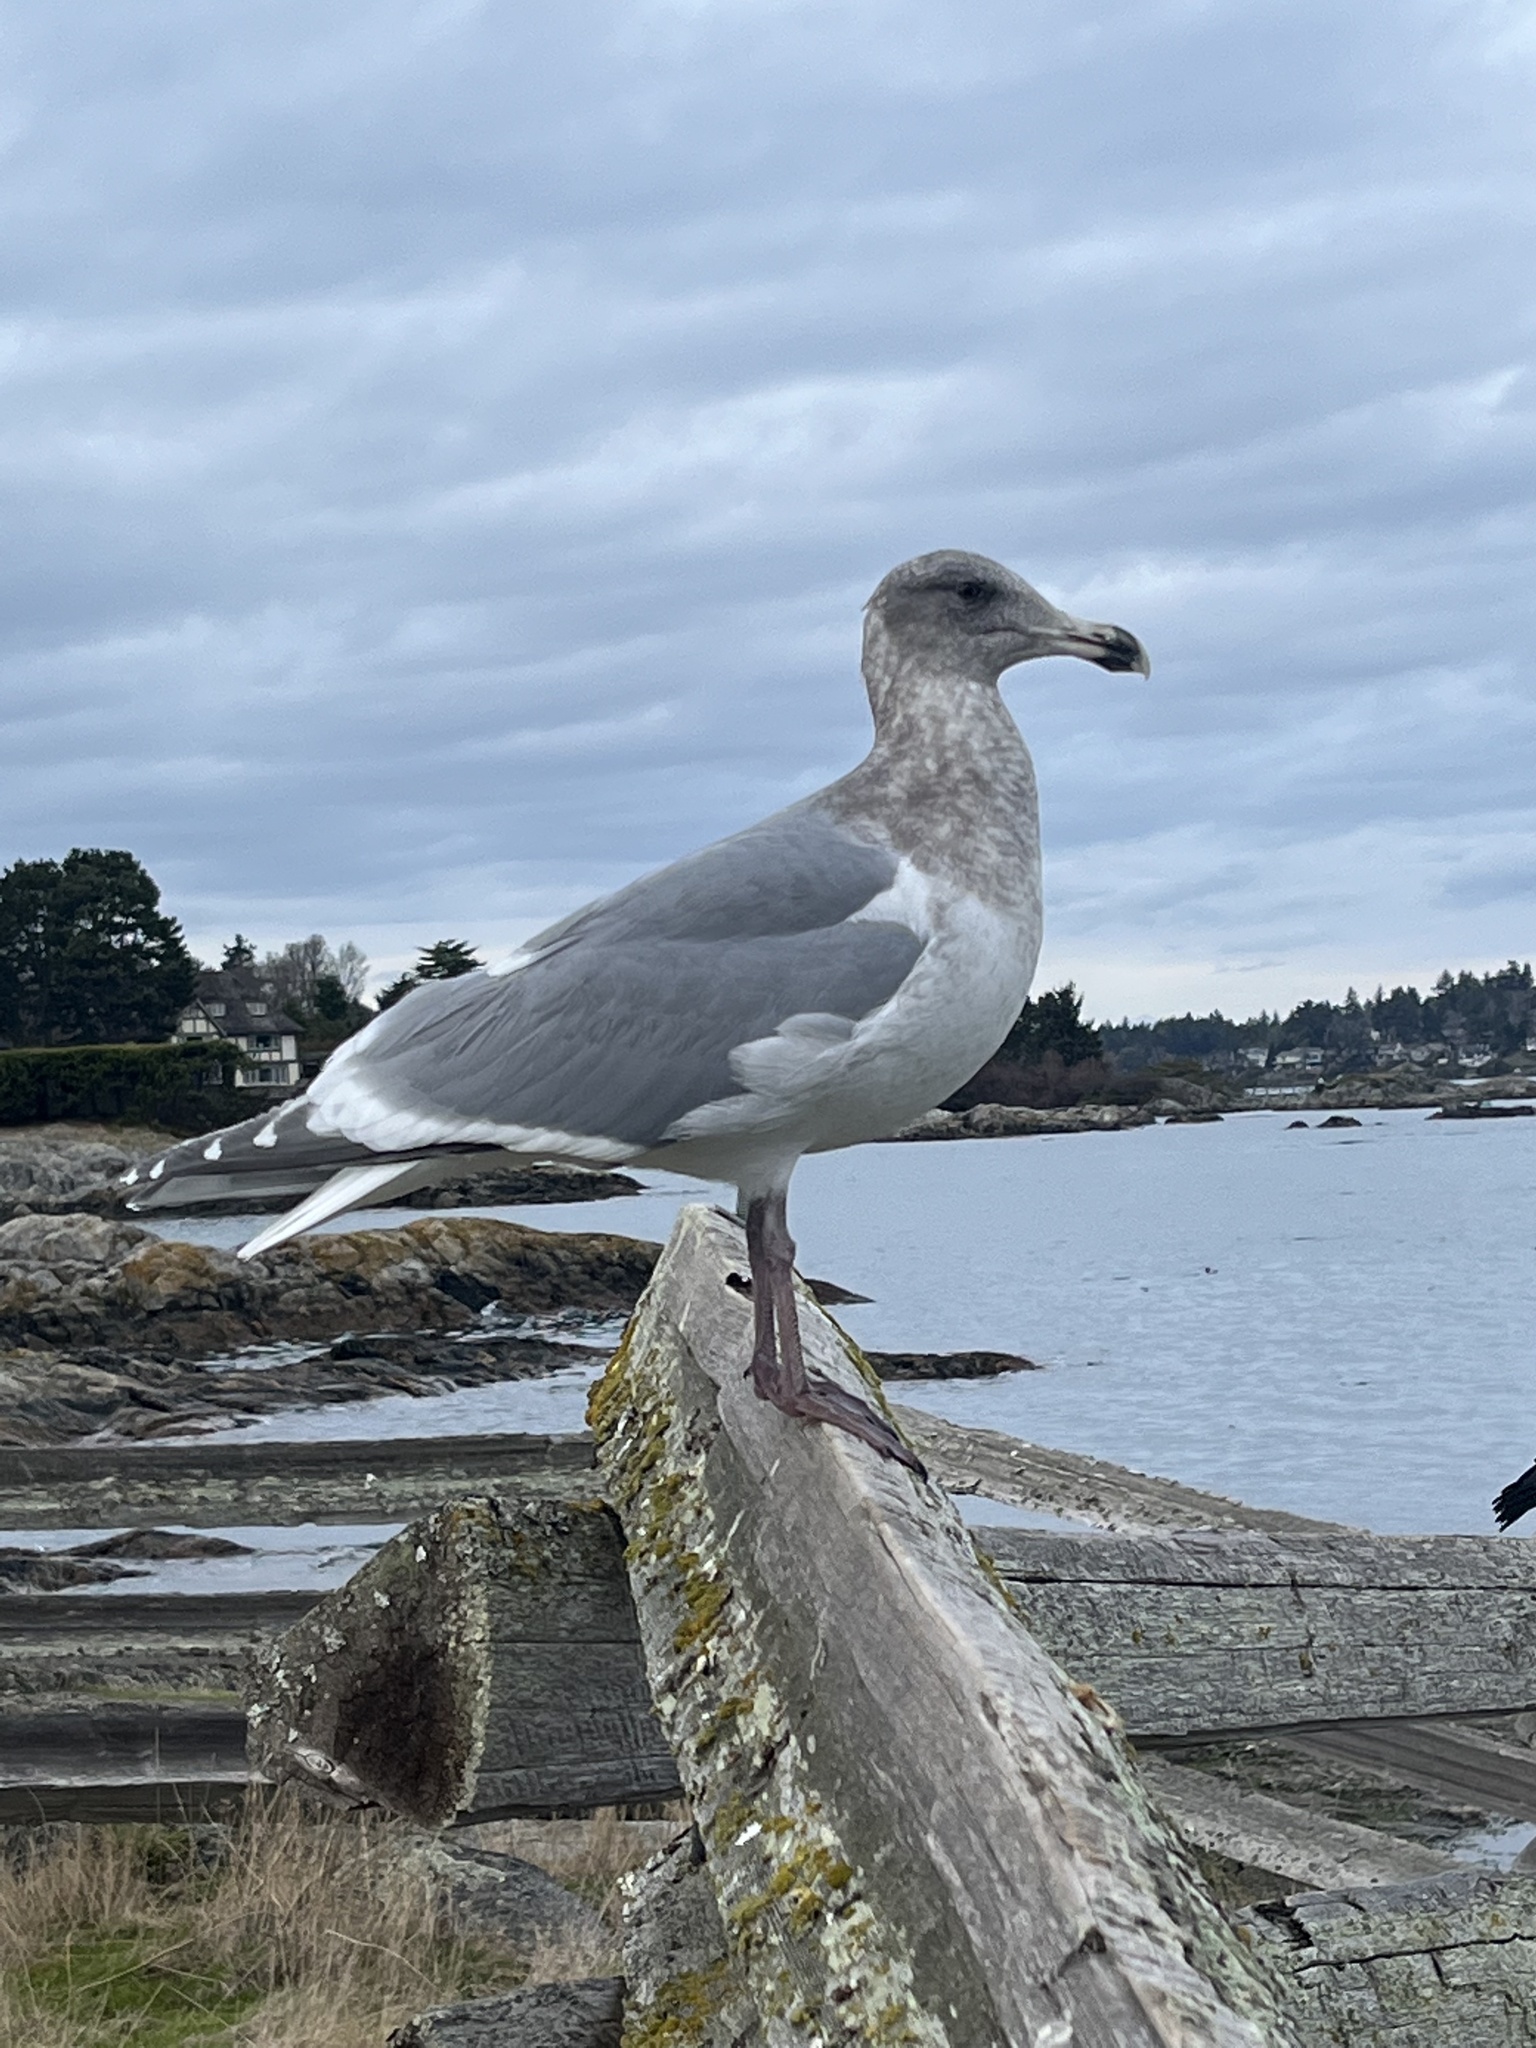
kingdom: Animalia
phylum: Chordata
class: Aves
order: Charadriiformes
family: Laridae
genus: Larus
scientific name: Larus
